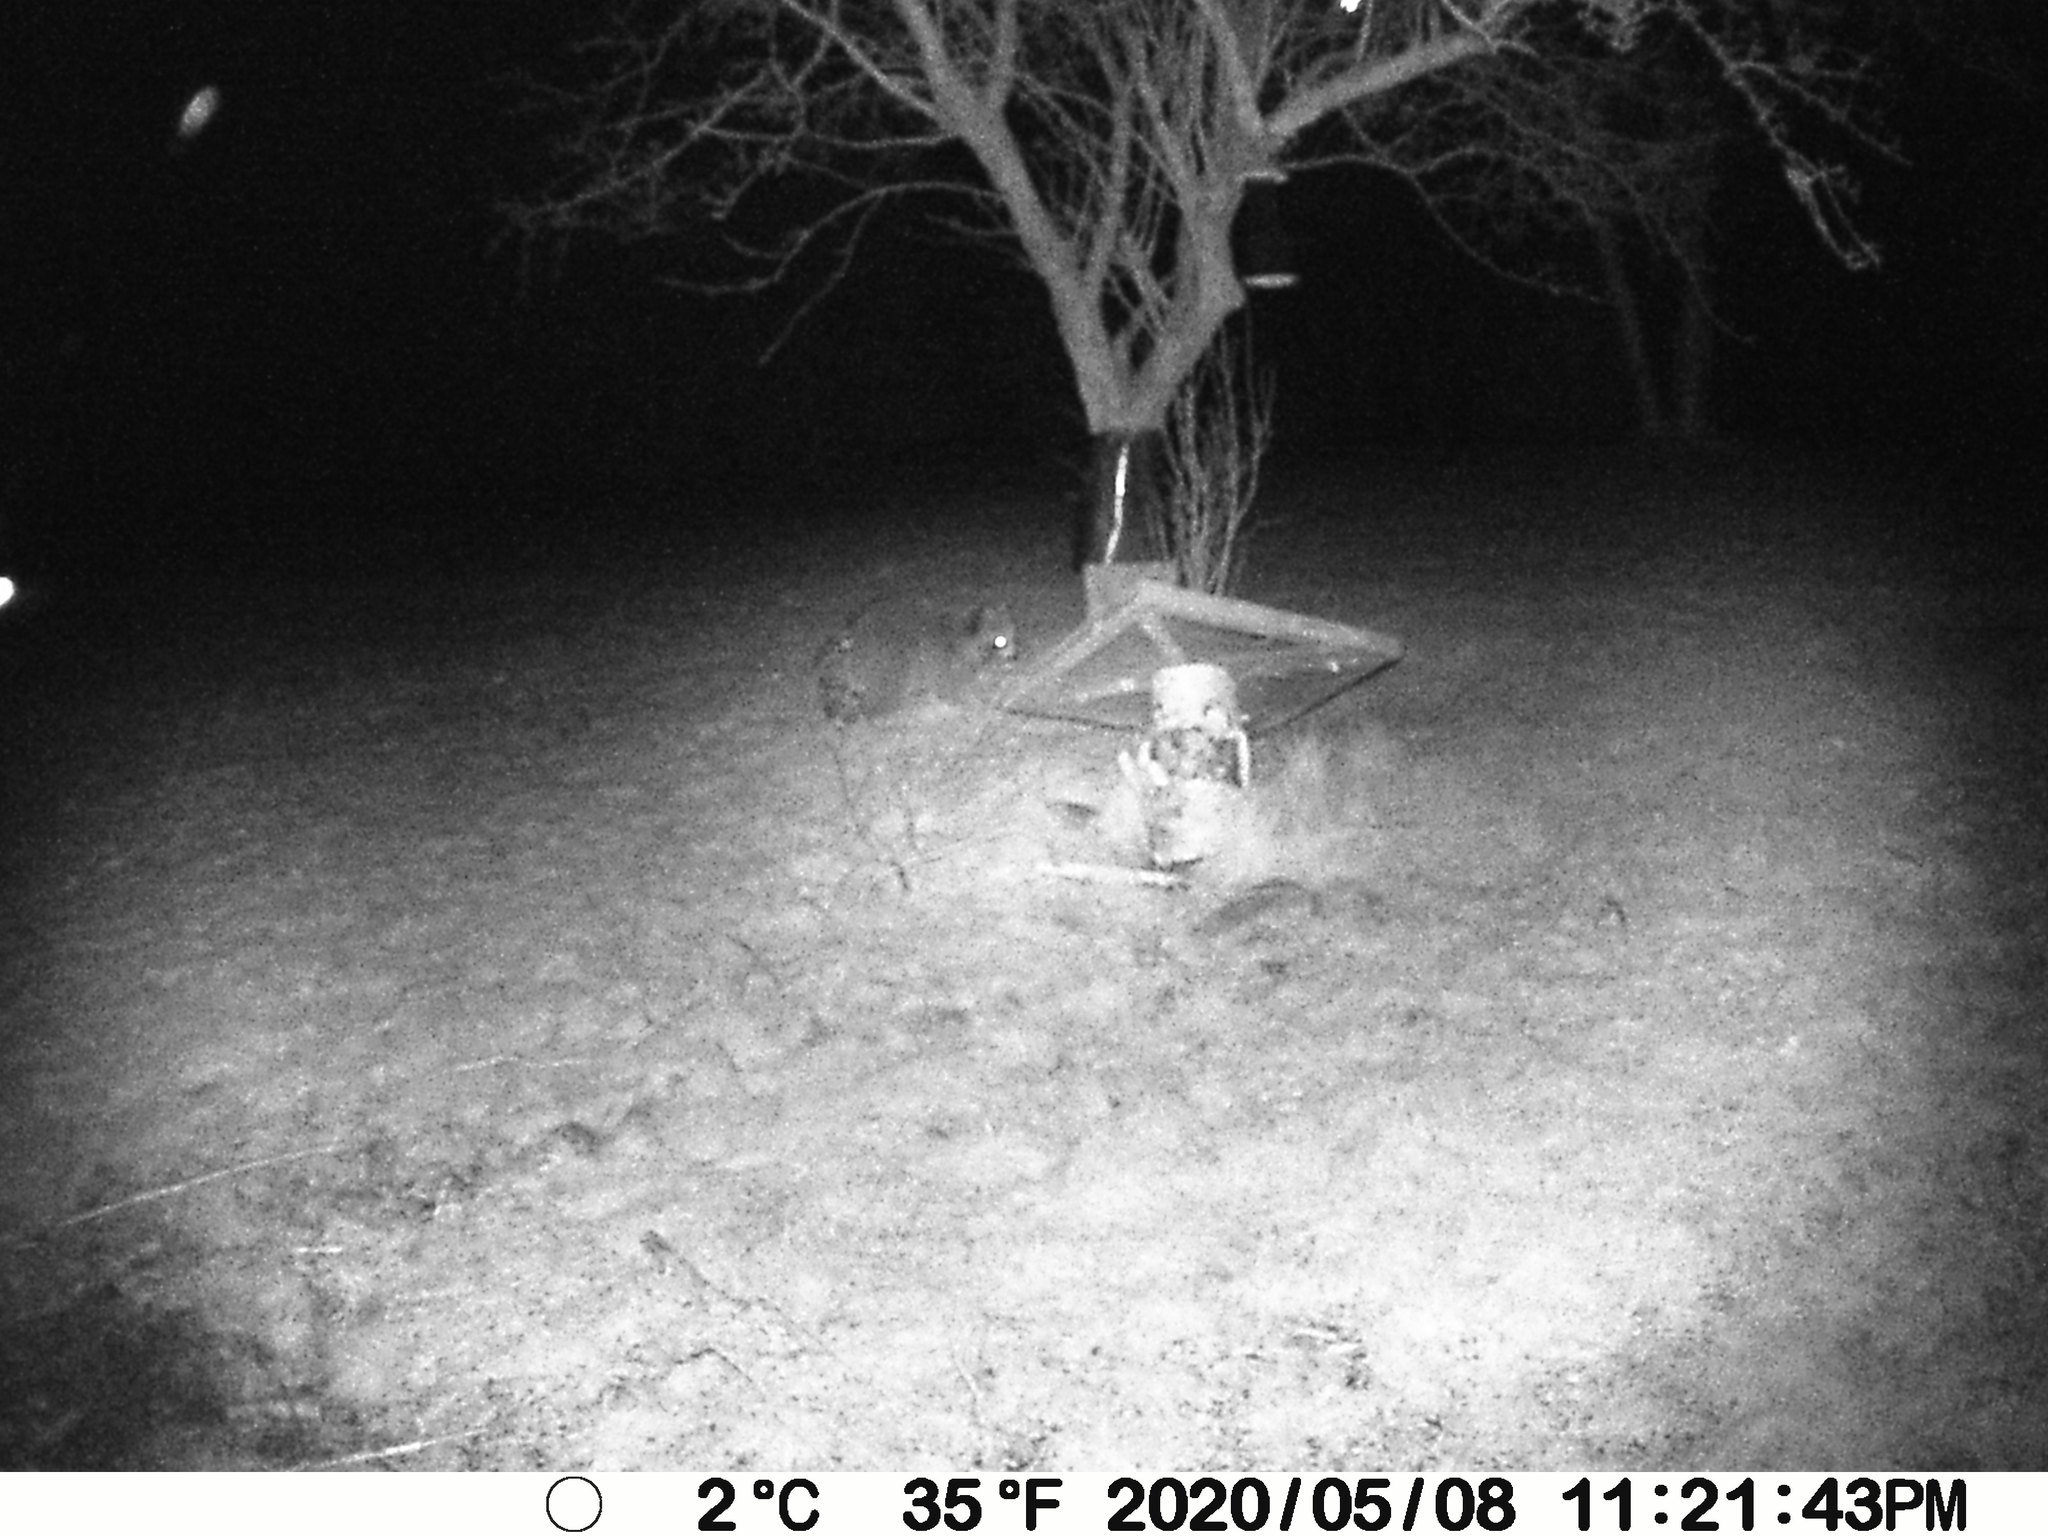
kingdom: Animalia
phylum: Chordata
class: Mammalia
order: Carnivora
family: Procyonidae
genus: Procyon
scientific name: Procyon lotor
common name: Raccoon
